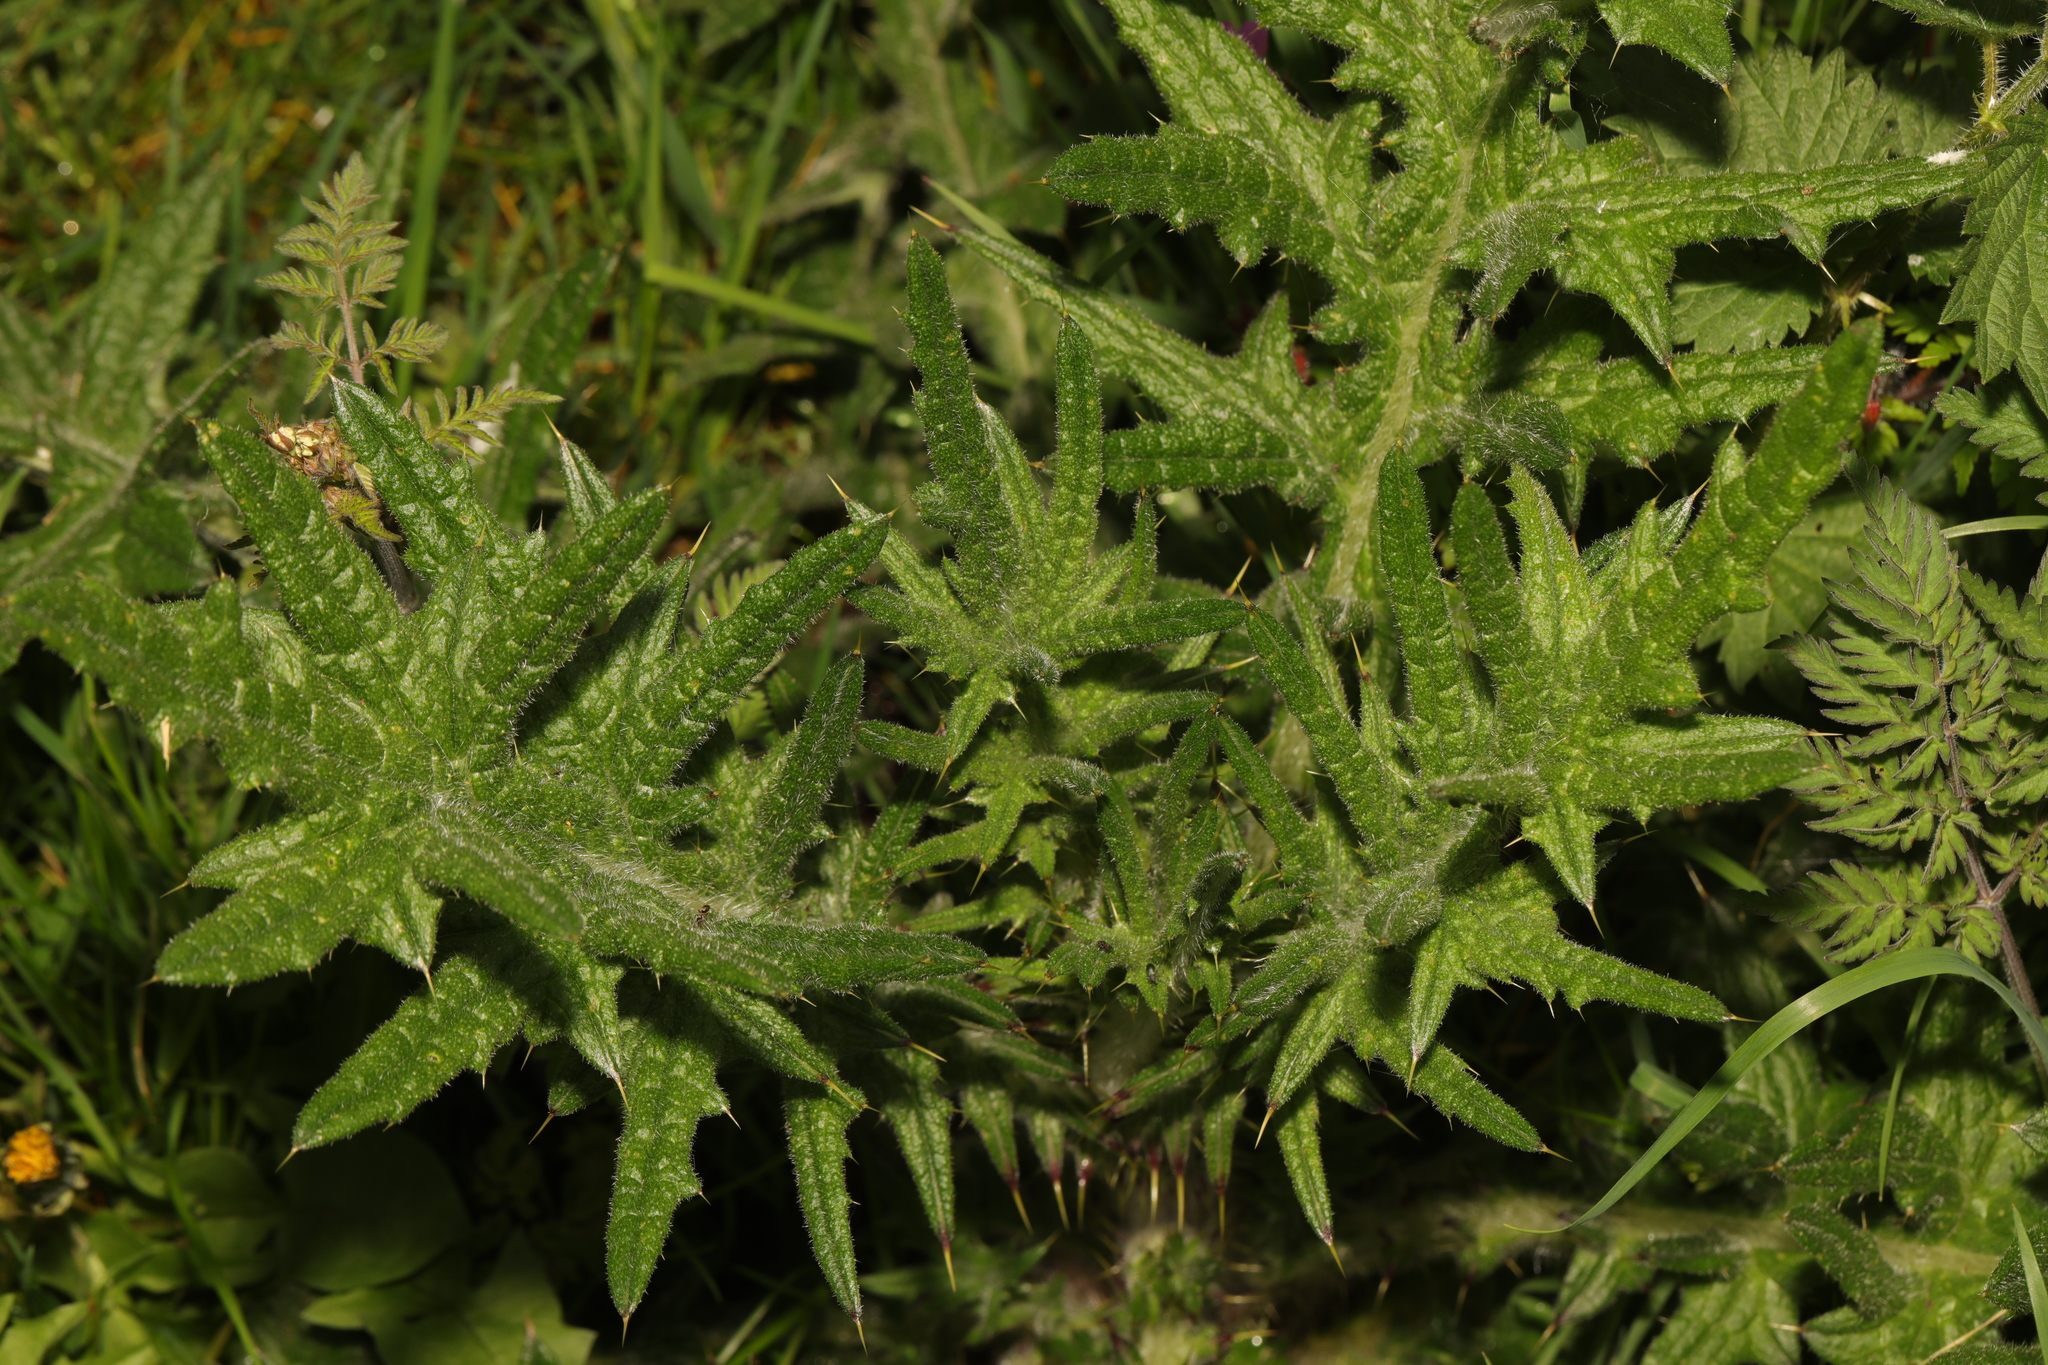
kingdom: Plantae
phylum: Tracheophyta
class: Magnoliopsida
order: Asterales
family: Asteraceae
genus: Cirsium
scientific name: Cirsium vulgare
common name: Bull thistle
